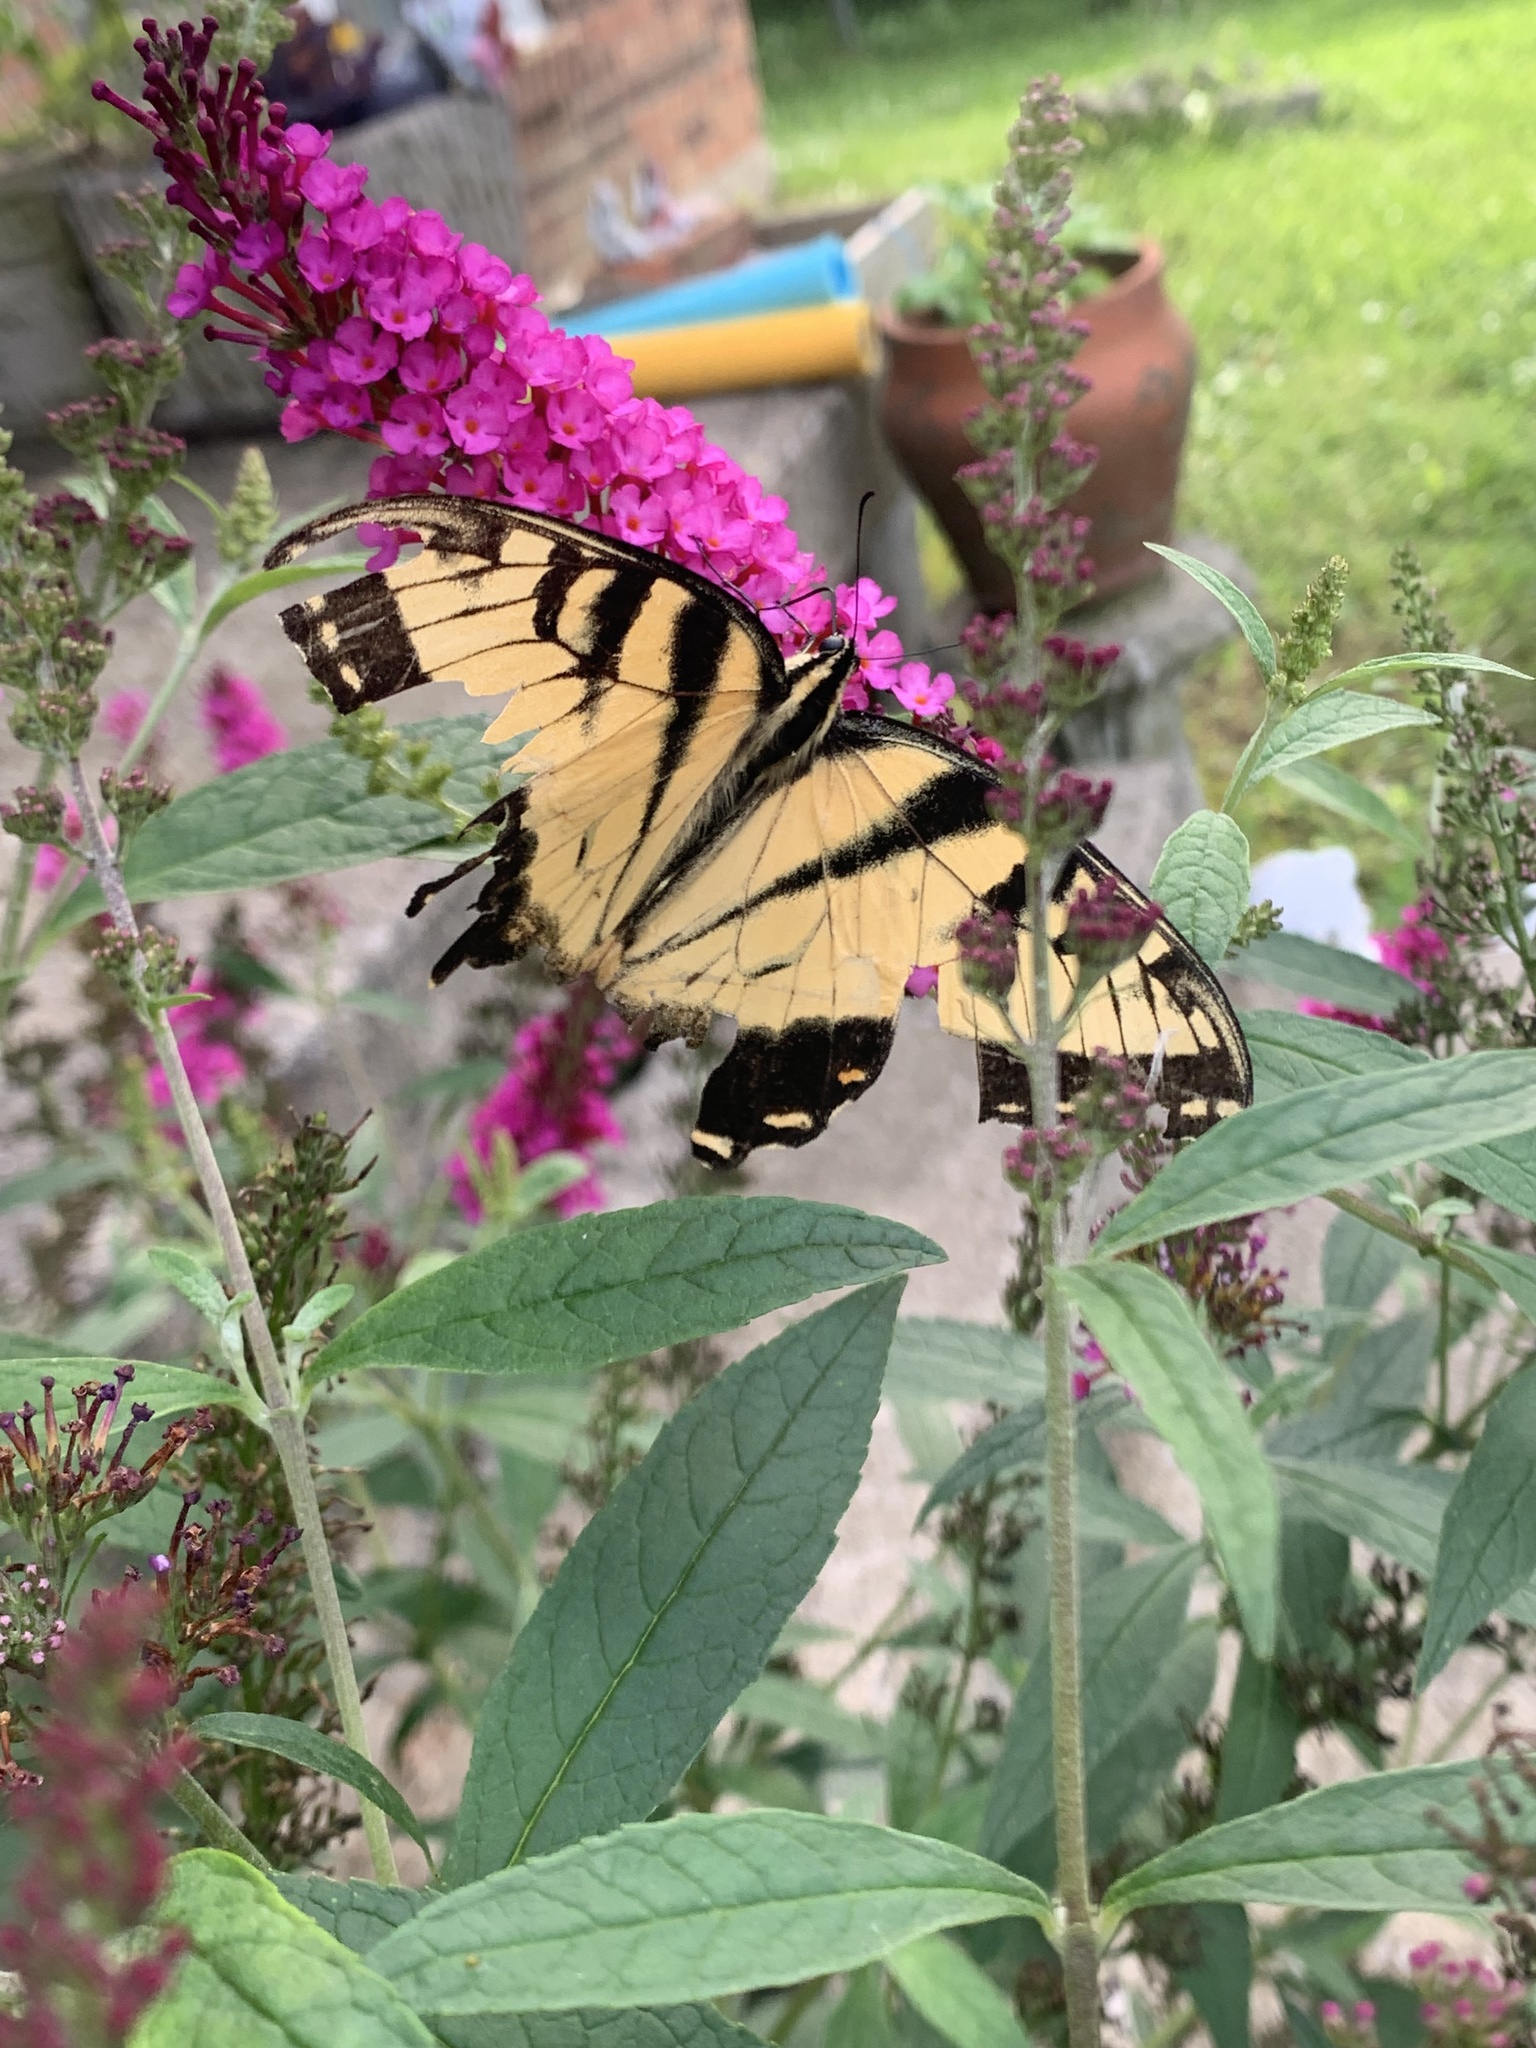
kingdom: Animalia
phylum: Arthropoda
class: Insecta
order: Lepidoptera
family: Papilionidae
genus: Papilio
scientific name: Papilio glaucus
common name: Tiger swallowtail
